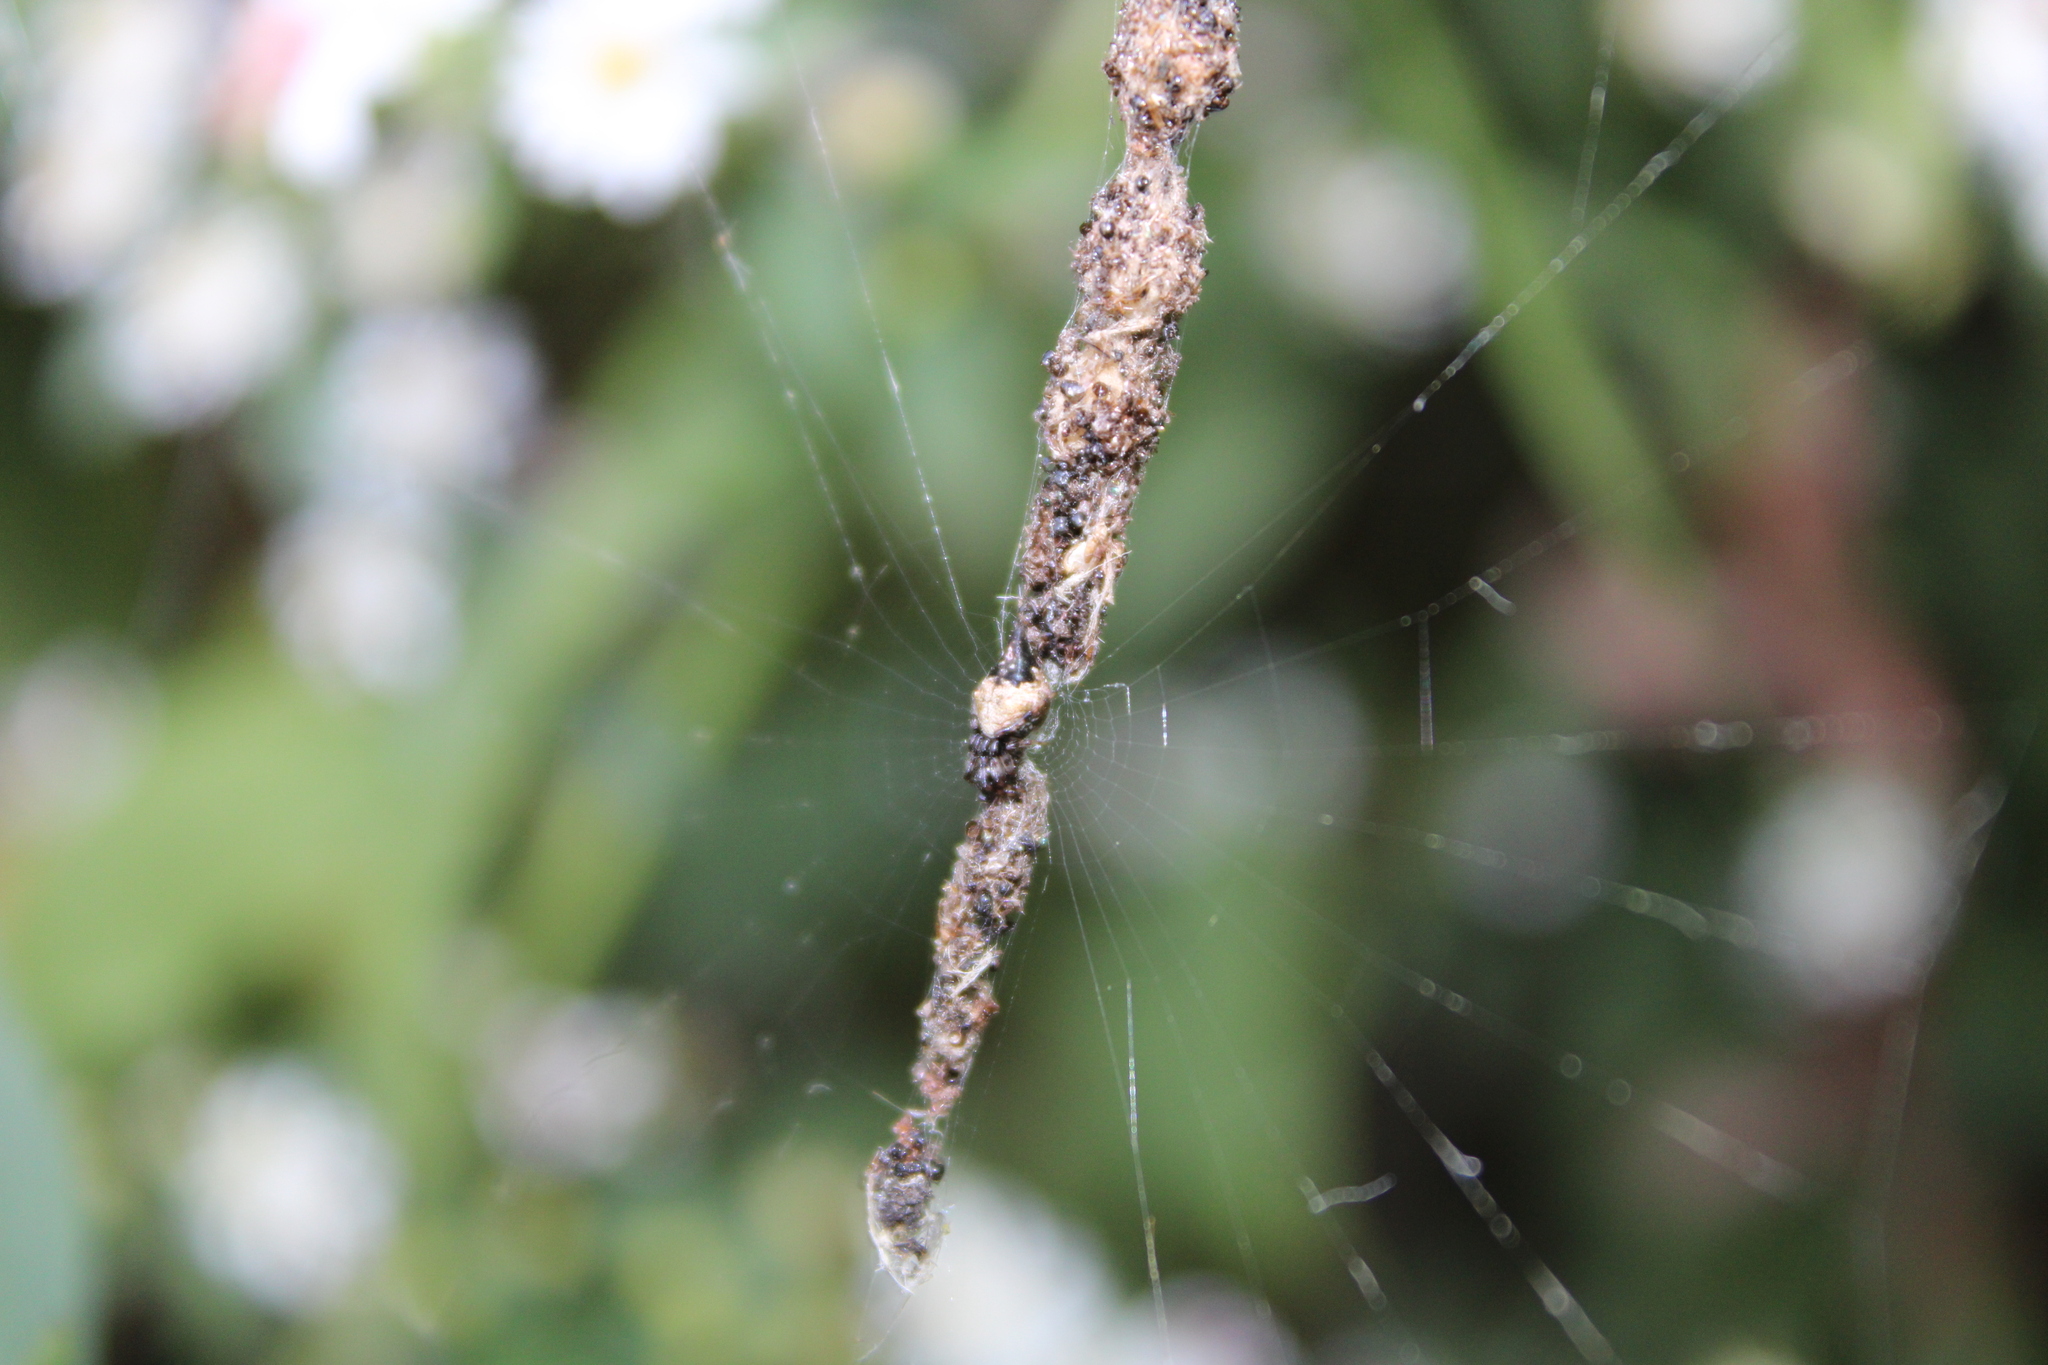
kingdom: Animalia
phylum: Arthropoda
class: Arachnida
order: Araneae
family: Araneidae
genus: Cyclosa
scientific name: Cyclosa turbinata
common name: Orb weavers
